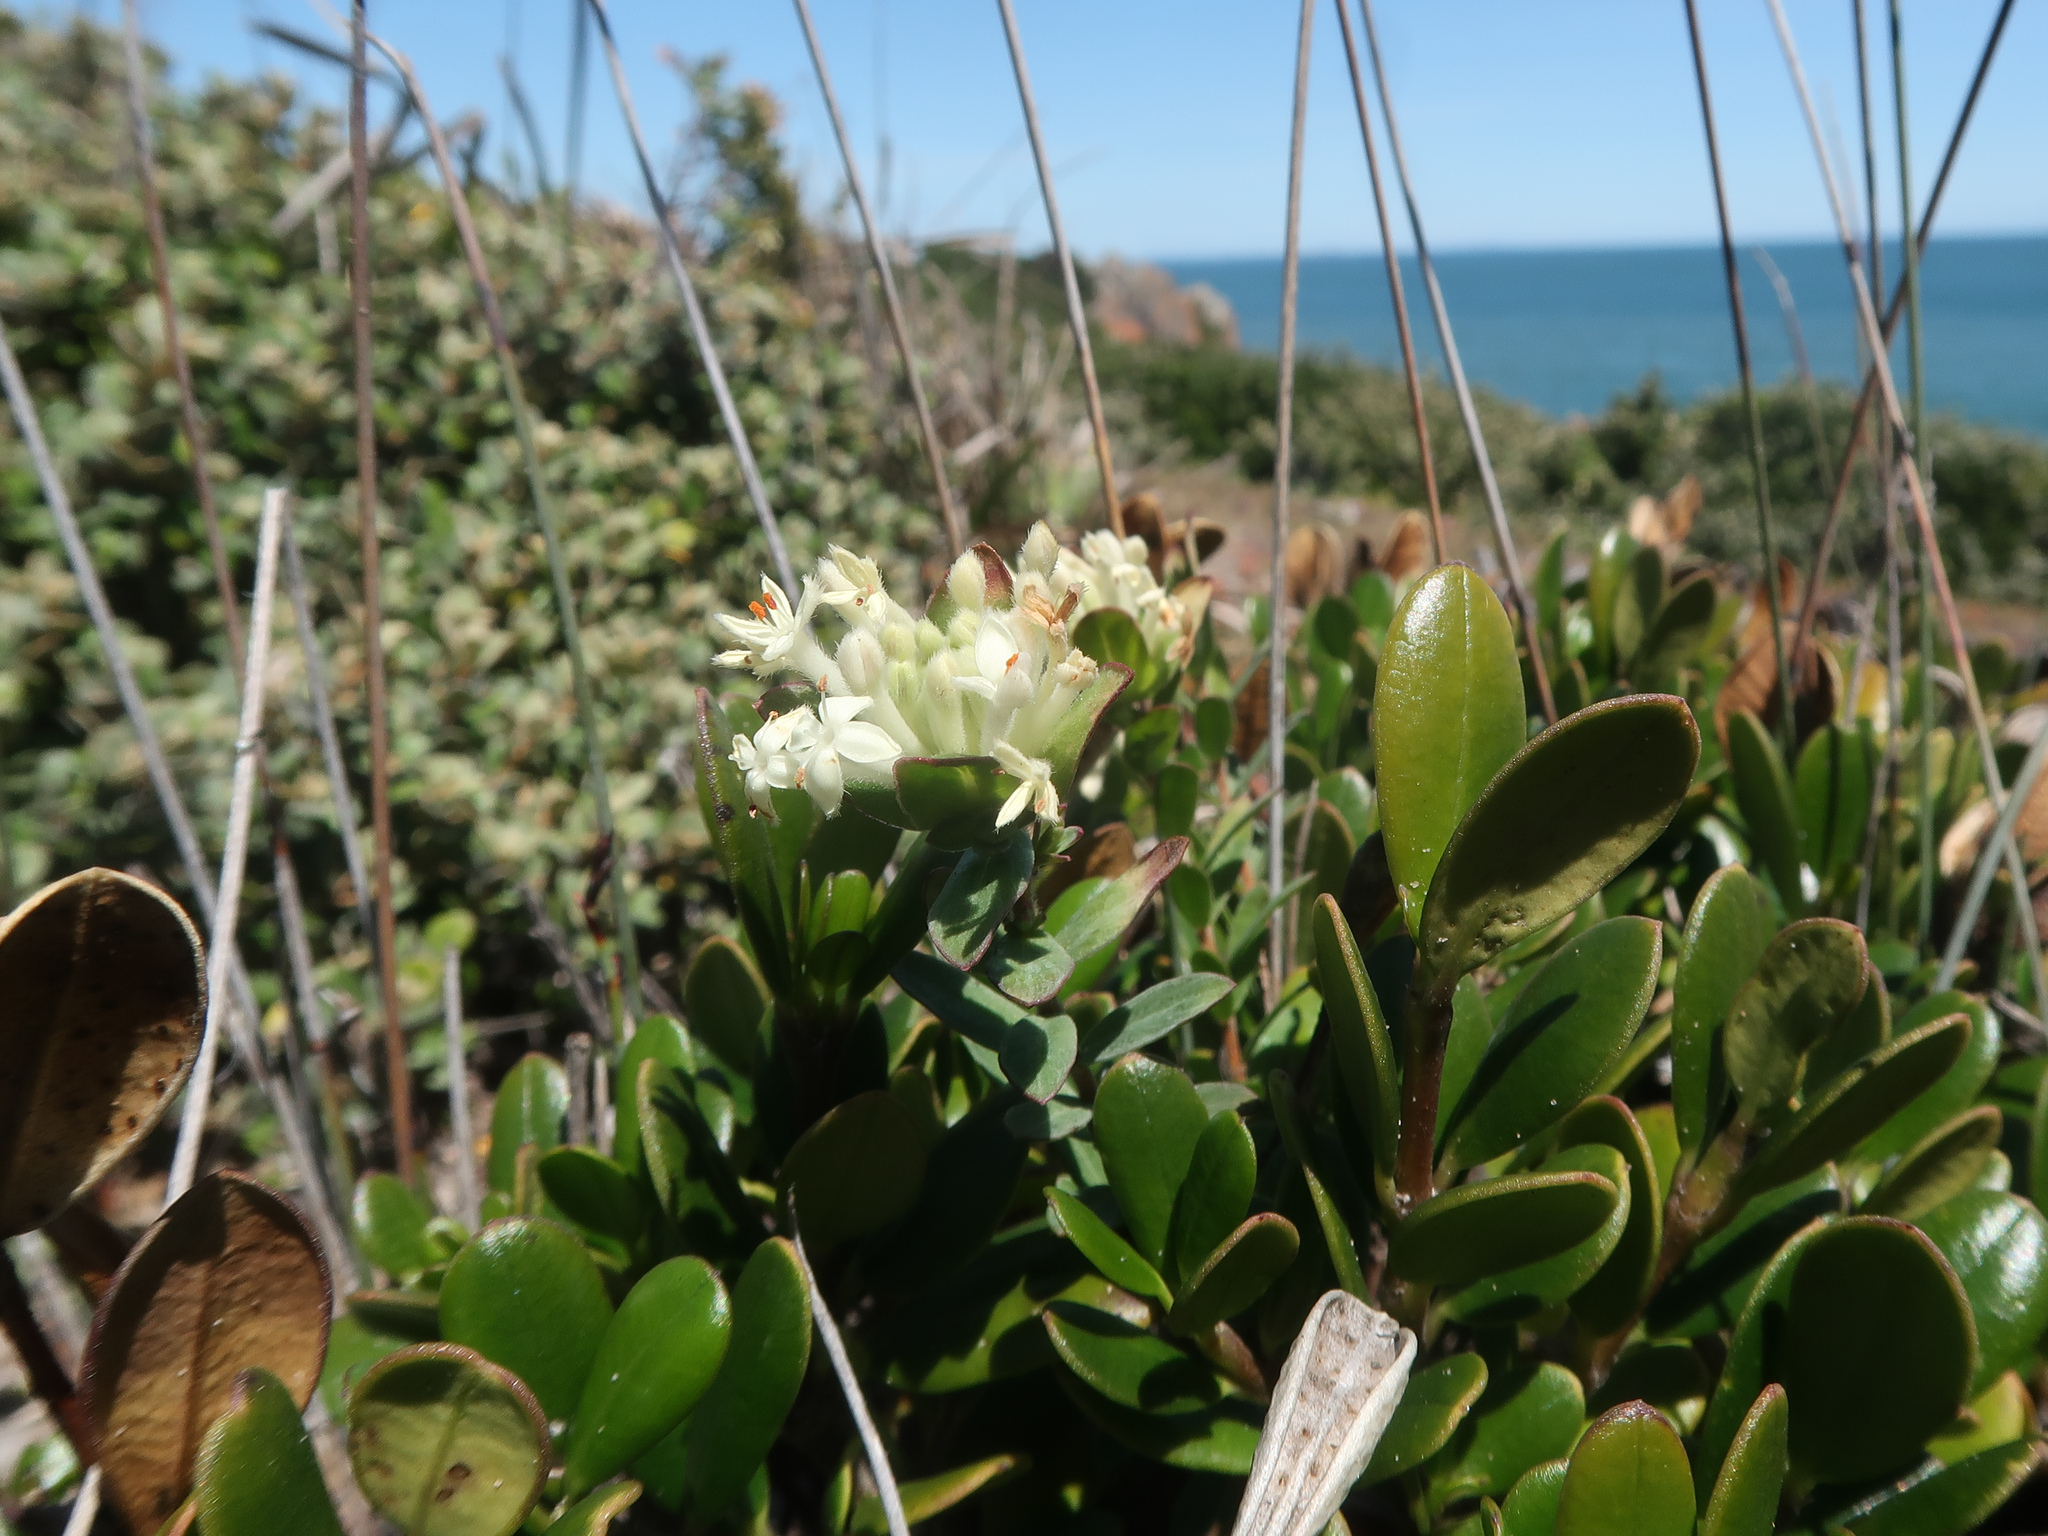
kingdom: Plantae
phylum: Tracheophyta
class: Magnoliopsida
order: Malvales
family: Thymelaeaceae
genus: Pimelea
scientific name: Pimelea humilis
